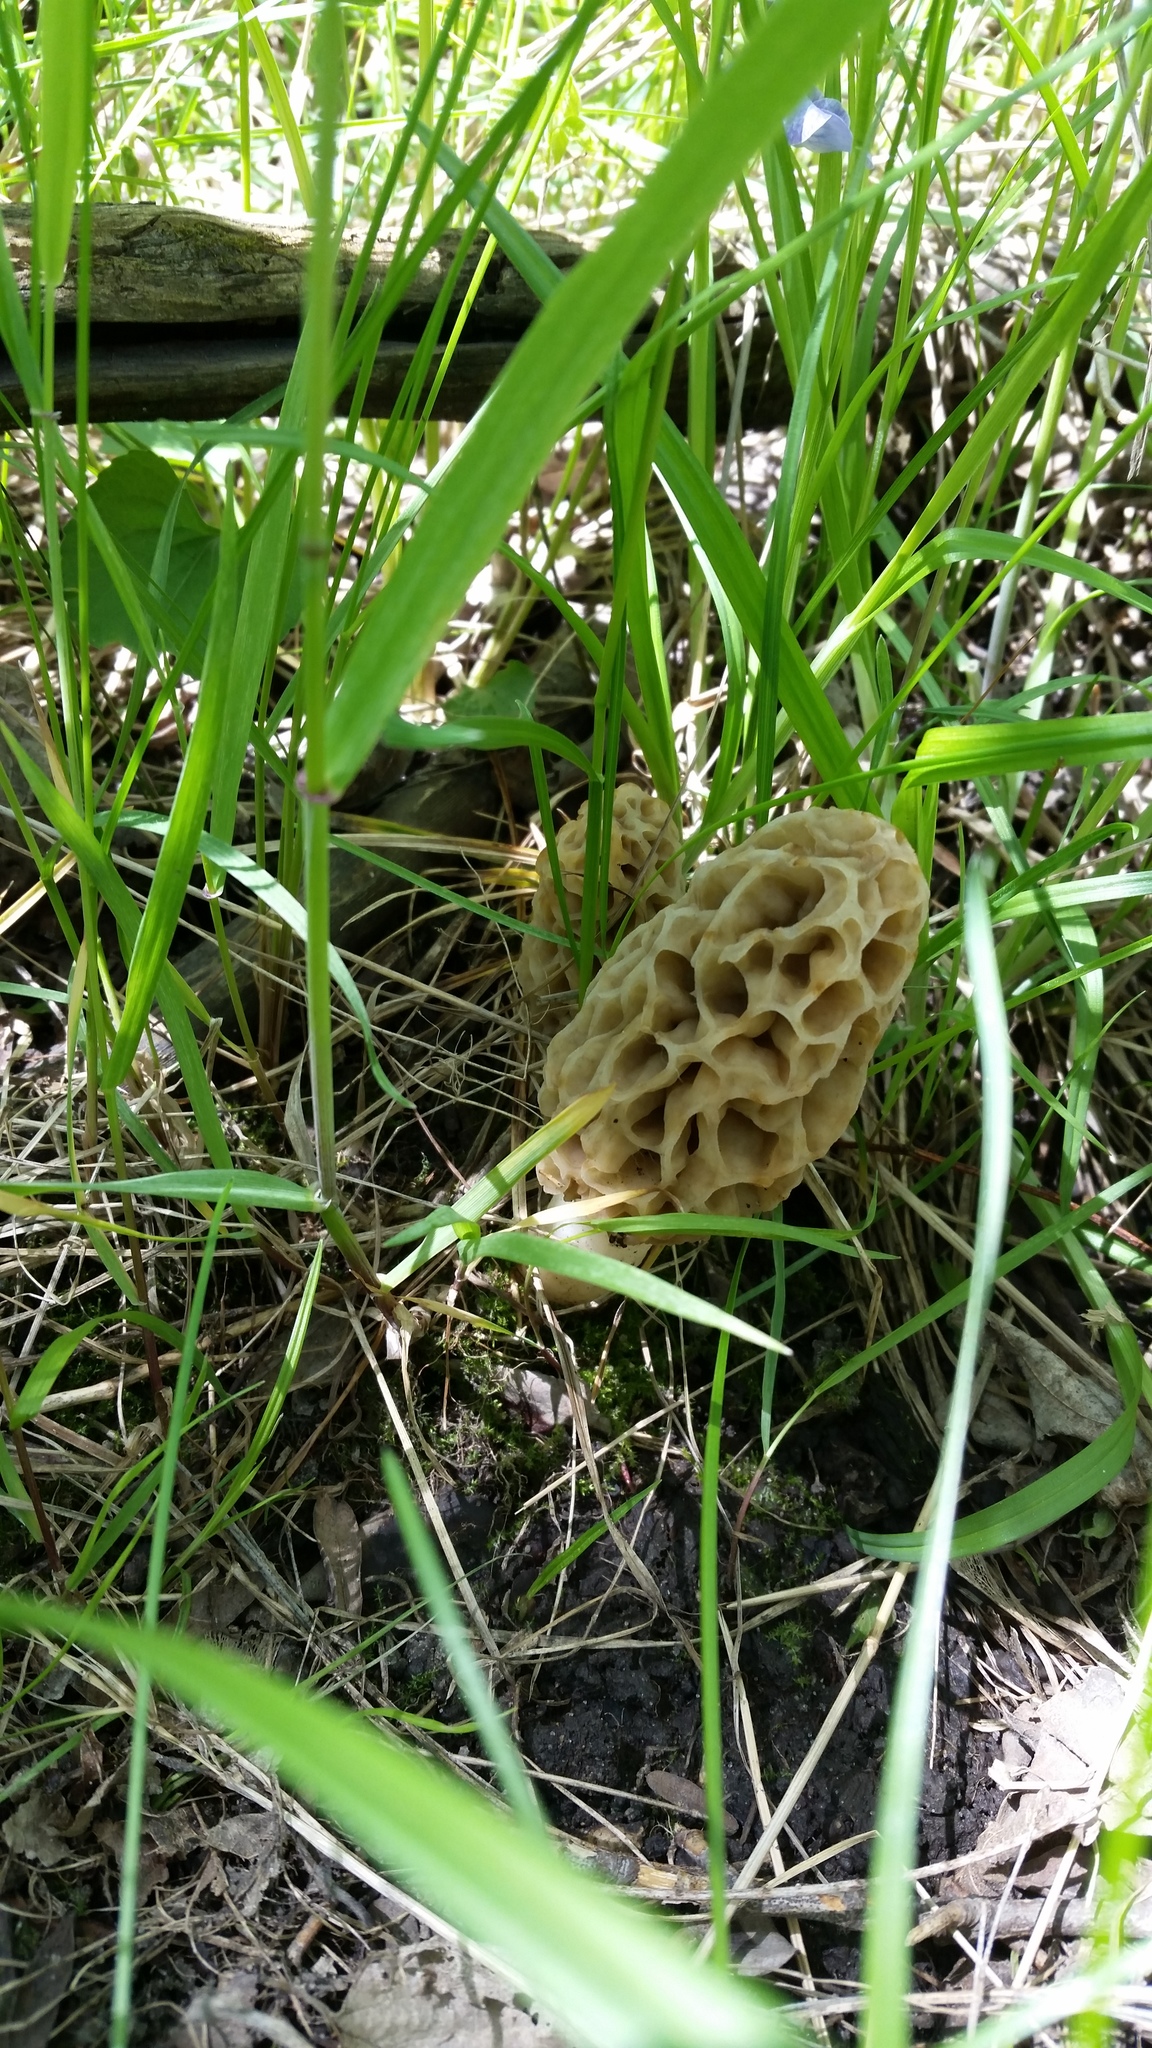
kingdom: Fungi
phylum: Ascomycota
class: Pezizomycetes
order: Pezizales
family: Morchellaceae
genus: Morchella
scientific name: Morchella americana
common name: White morel
